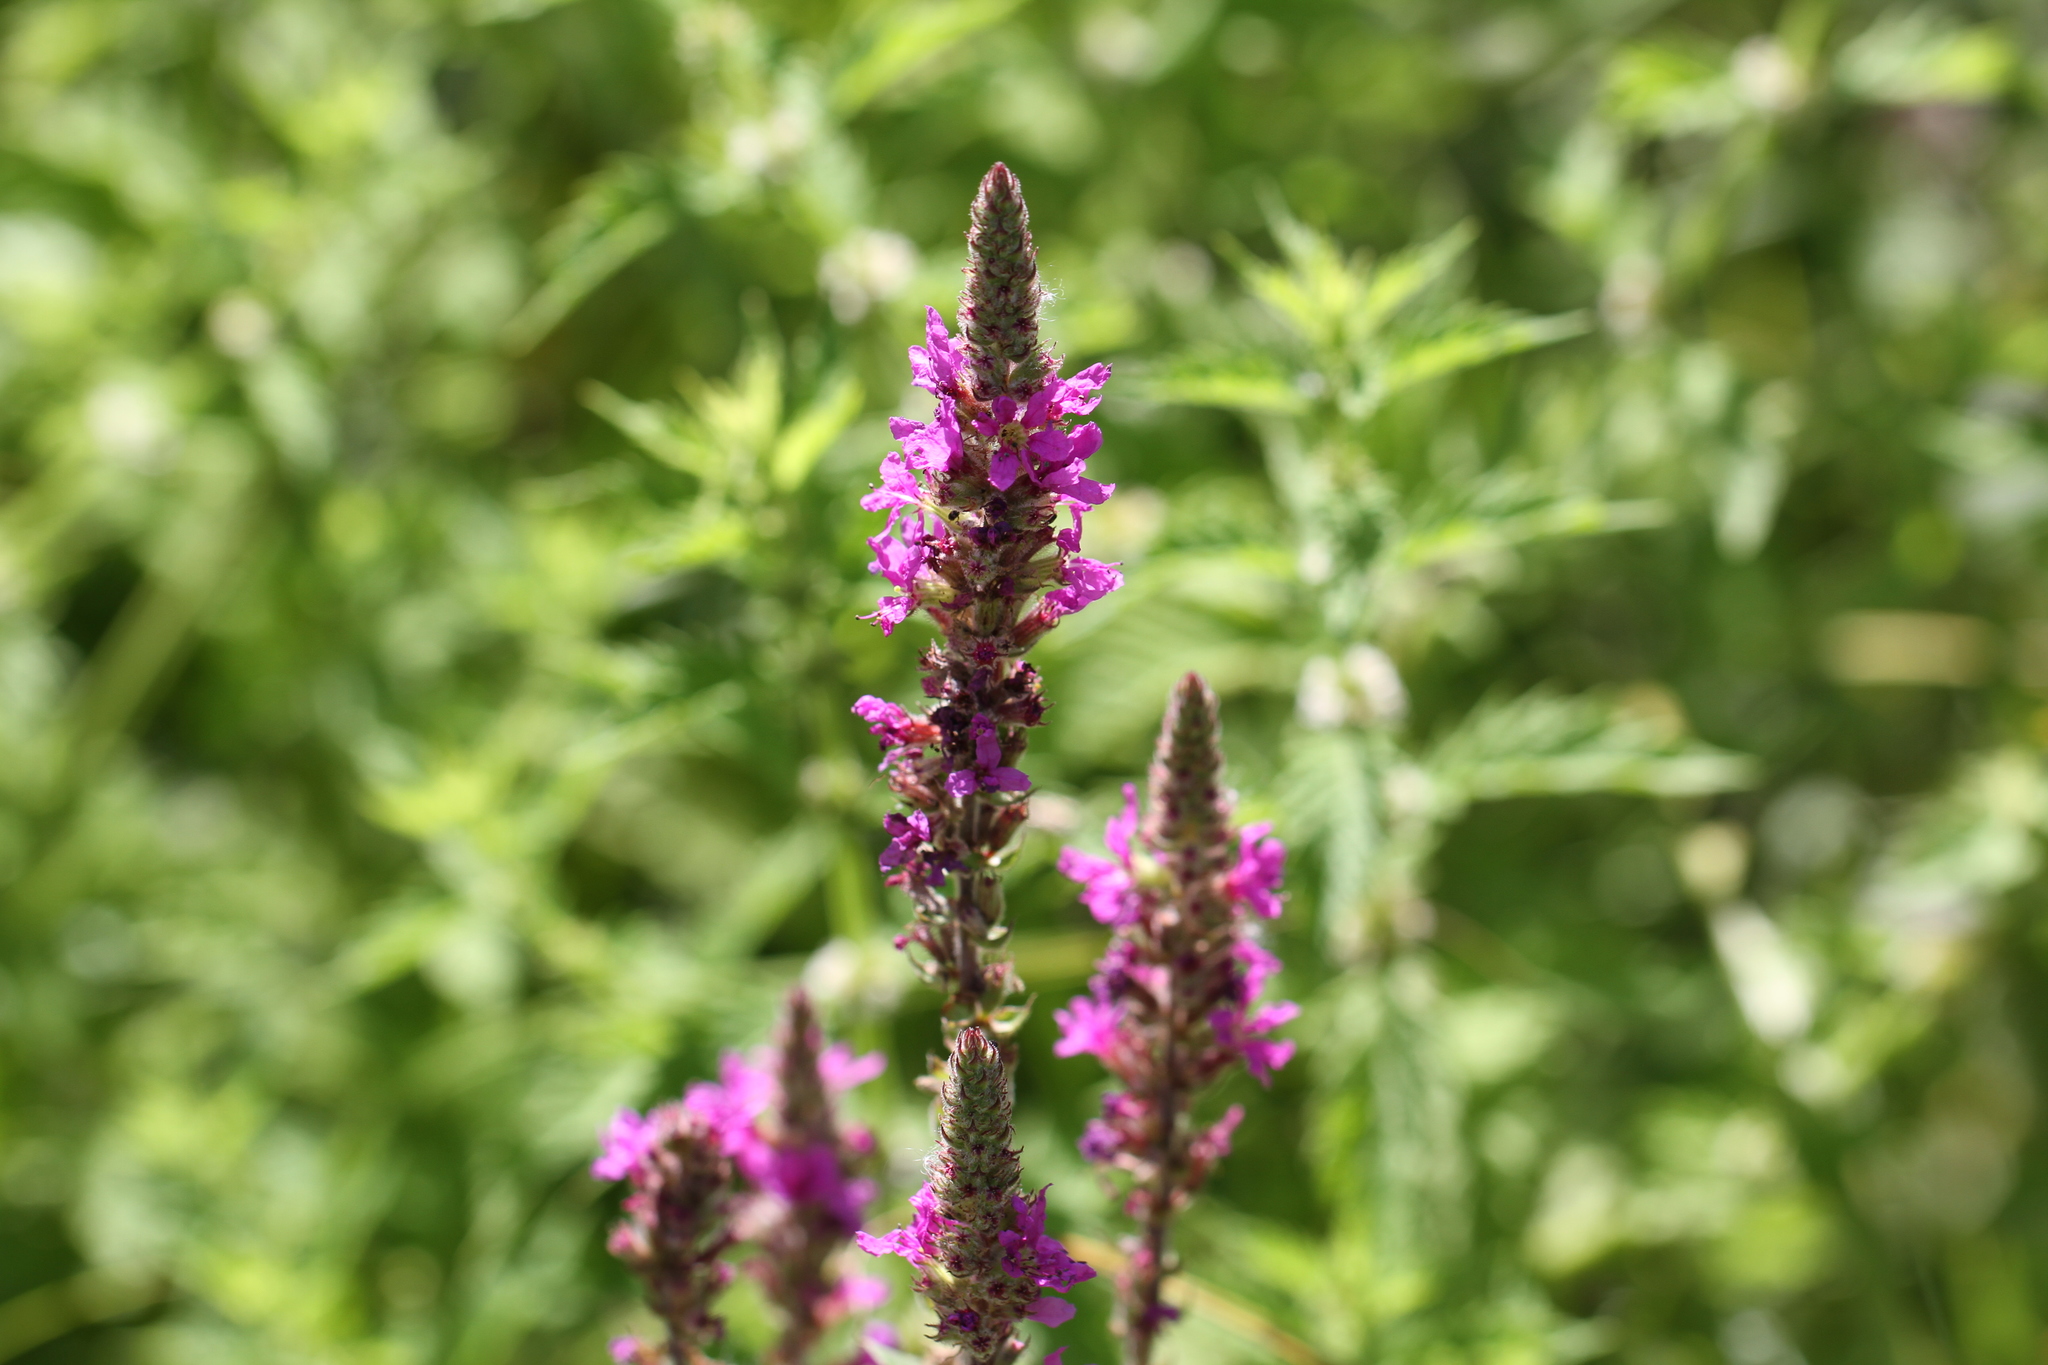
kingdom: Plantae
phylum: Tracheophyta
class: Magnoliopsida
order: Myrtales
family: Lythraceae
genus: Lythrum
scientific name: Lythrum salicaria
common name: Purple loosestrife
